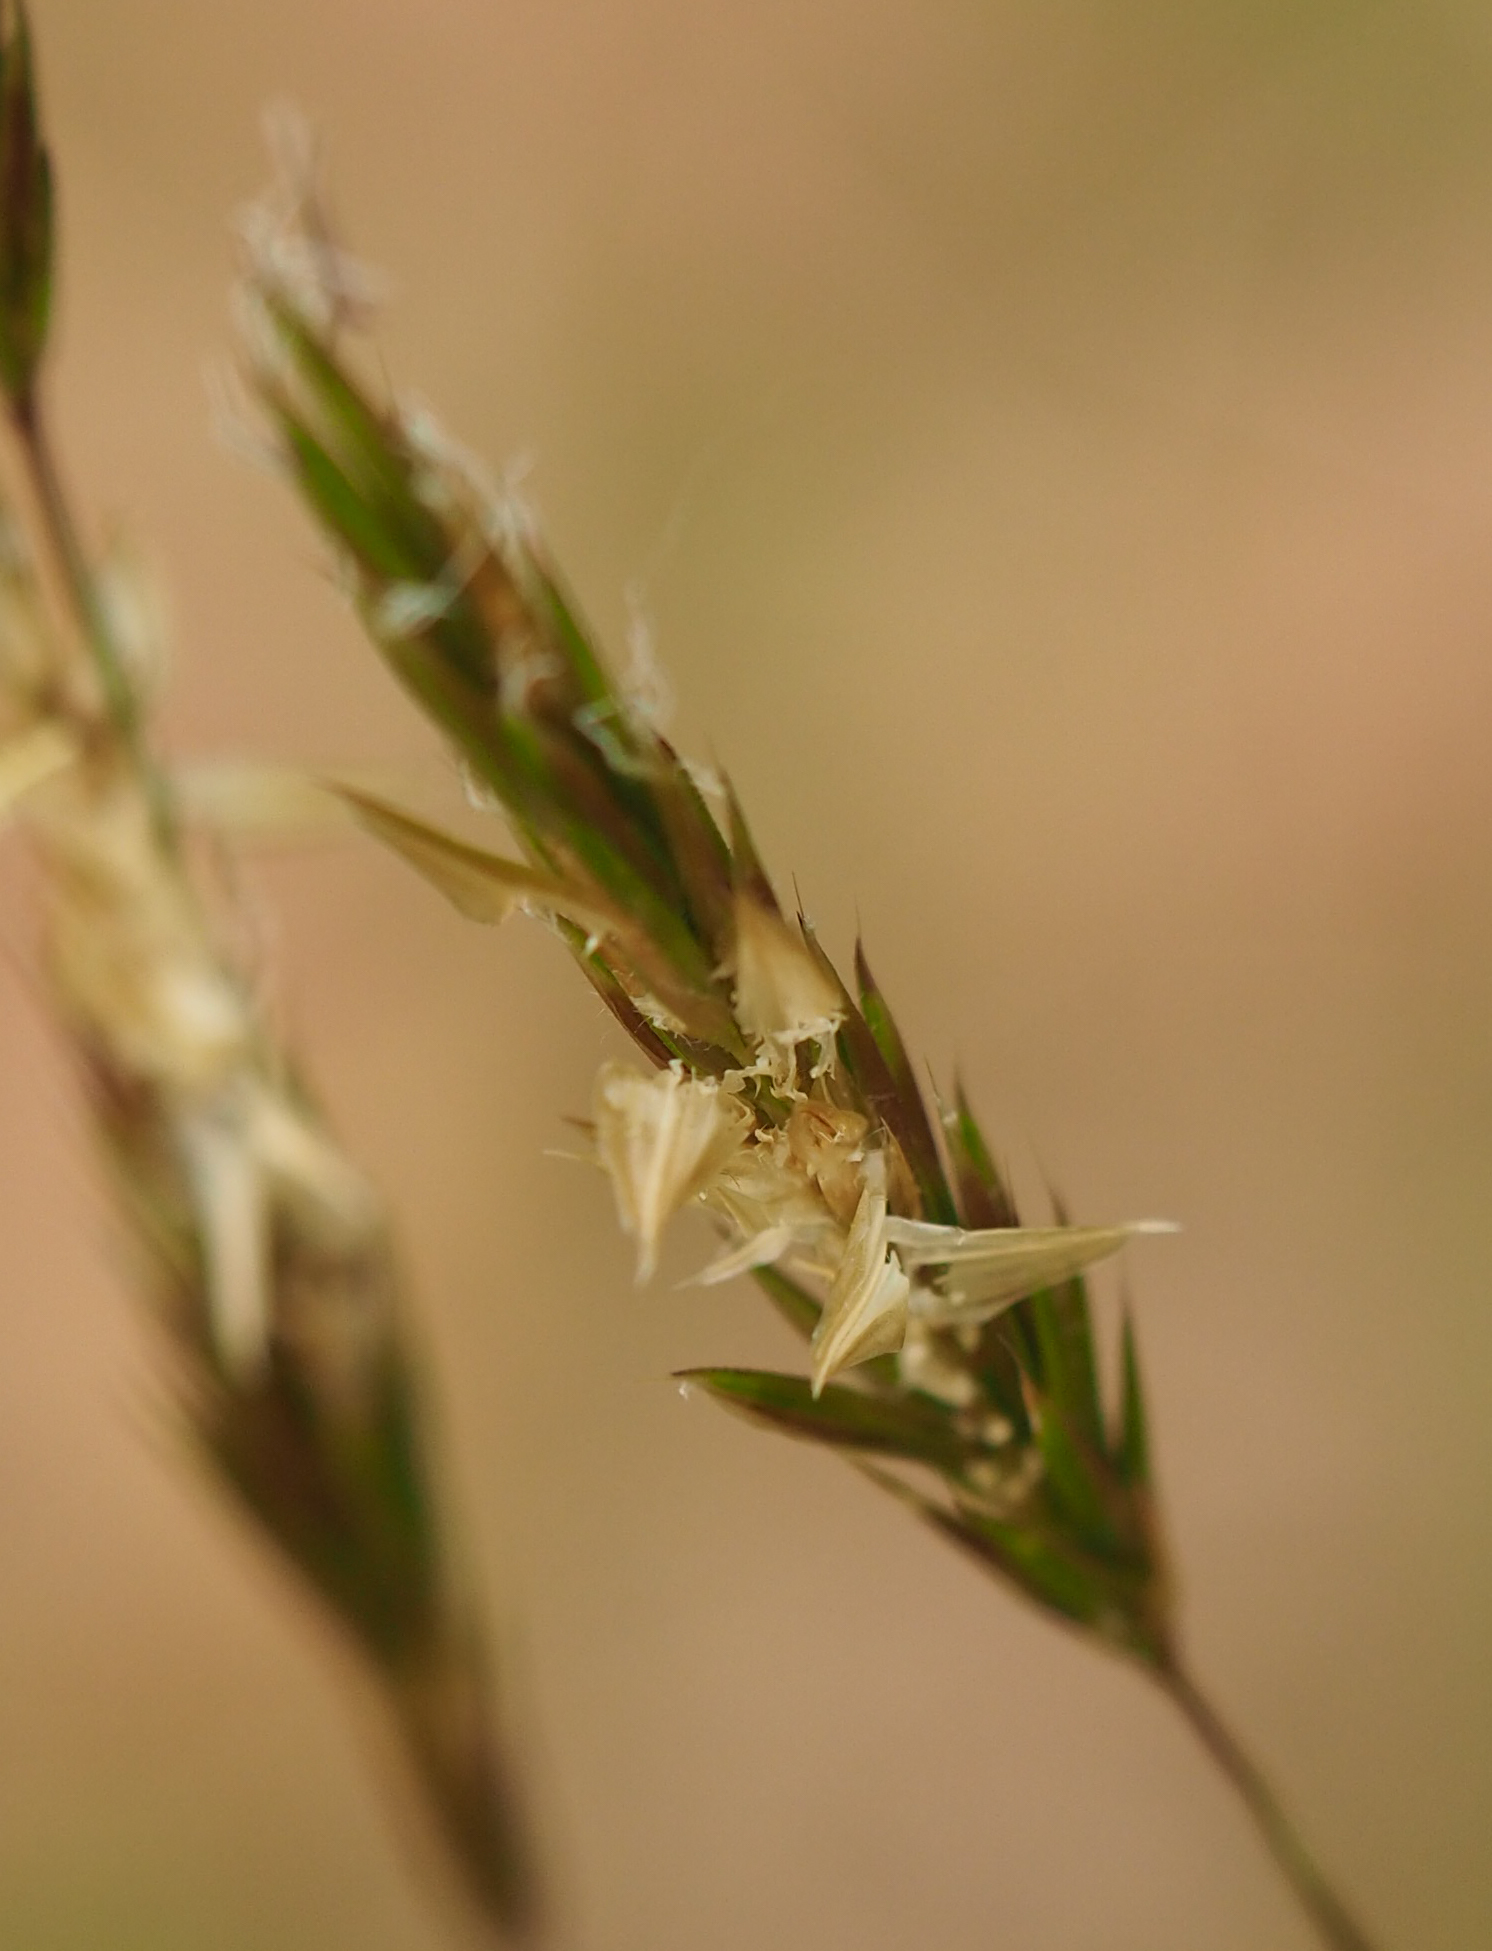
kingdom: Plantae
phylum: Tracheophyta
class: Liliopsida
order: Poales
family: Poaceae
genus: Anthoxanthum
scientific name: Anthoxanthum odoratum
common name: Sweet vernalgrass
